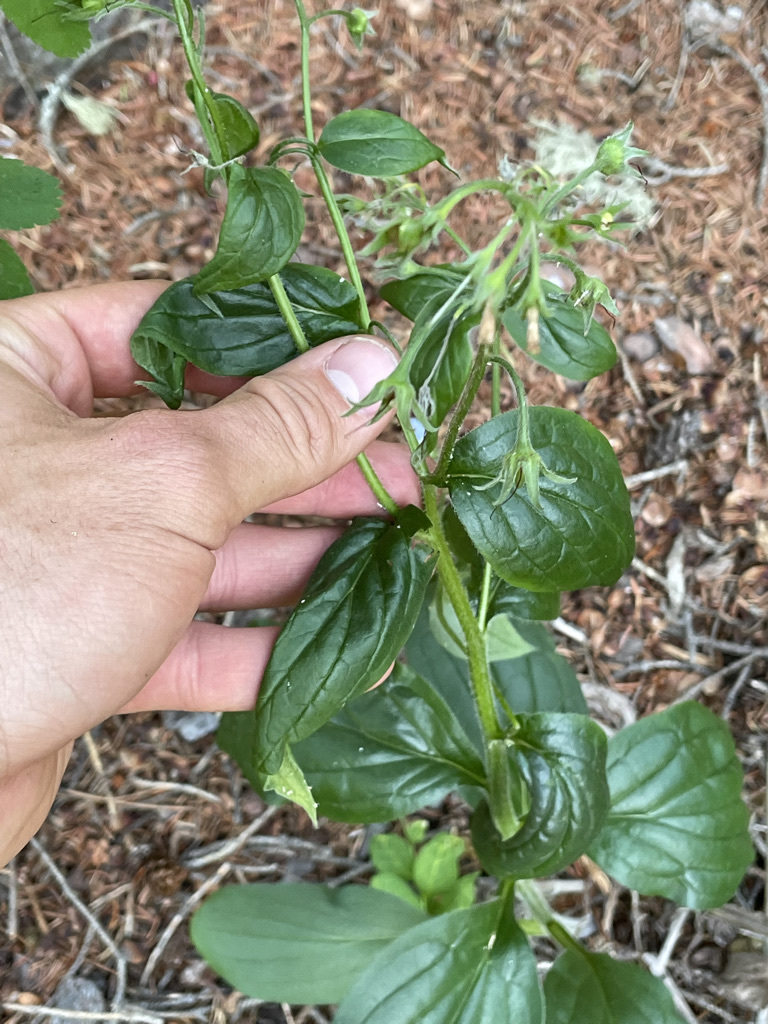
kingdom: Plantae
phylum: Tracheophyta
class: Magnoliopsida
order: Boraginales
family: Boraginaceae
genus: Mertensia
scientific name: Mertensia paniculata
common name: Panicled bluebells
